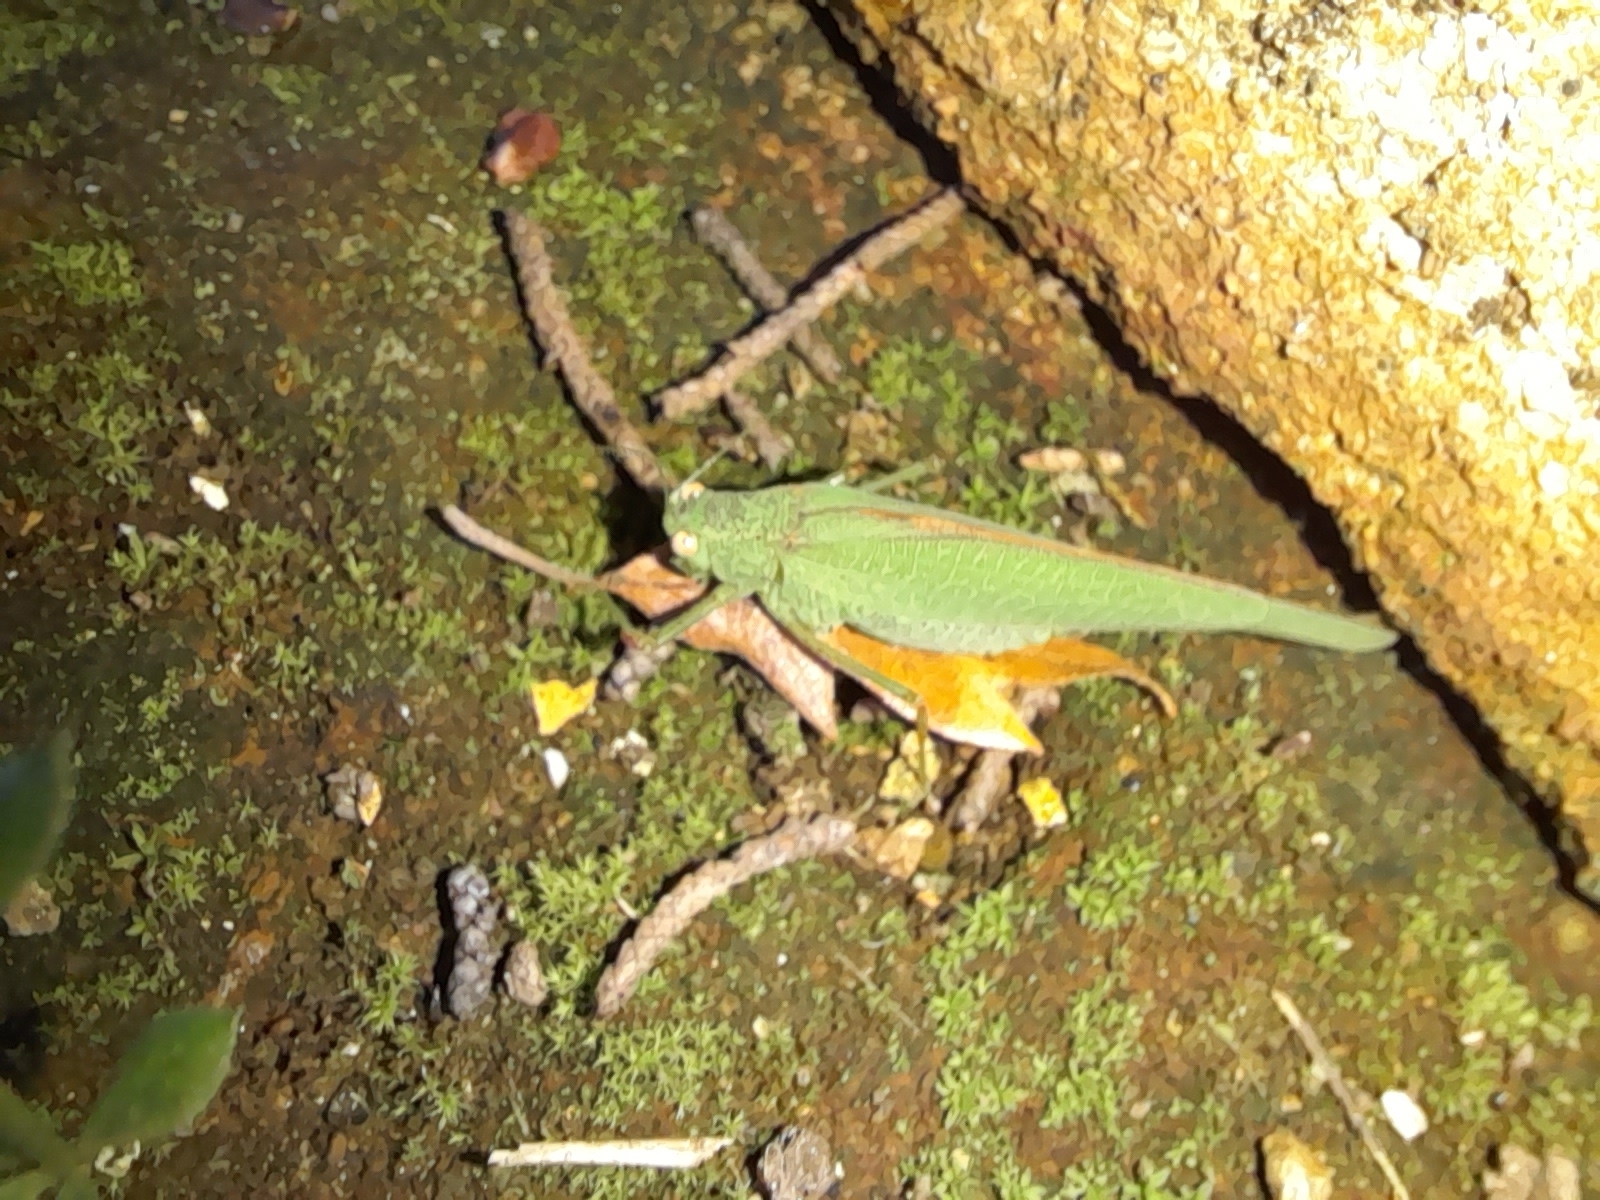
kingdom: Animalia
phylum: Arthropoda
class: Insecta
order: Orthoptera
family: Tettigoniidae
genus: Phaneroptera
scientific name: Phaneroptera nana
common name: Southern sickle bush-cricket
